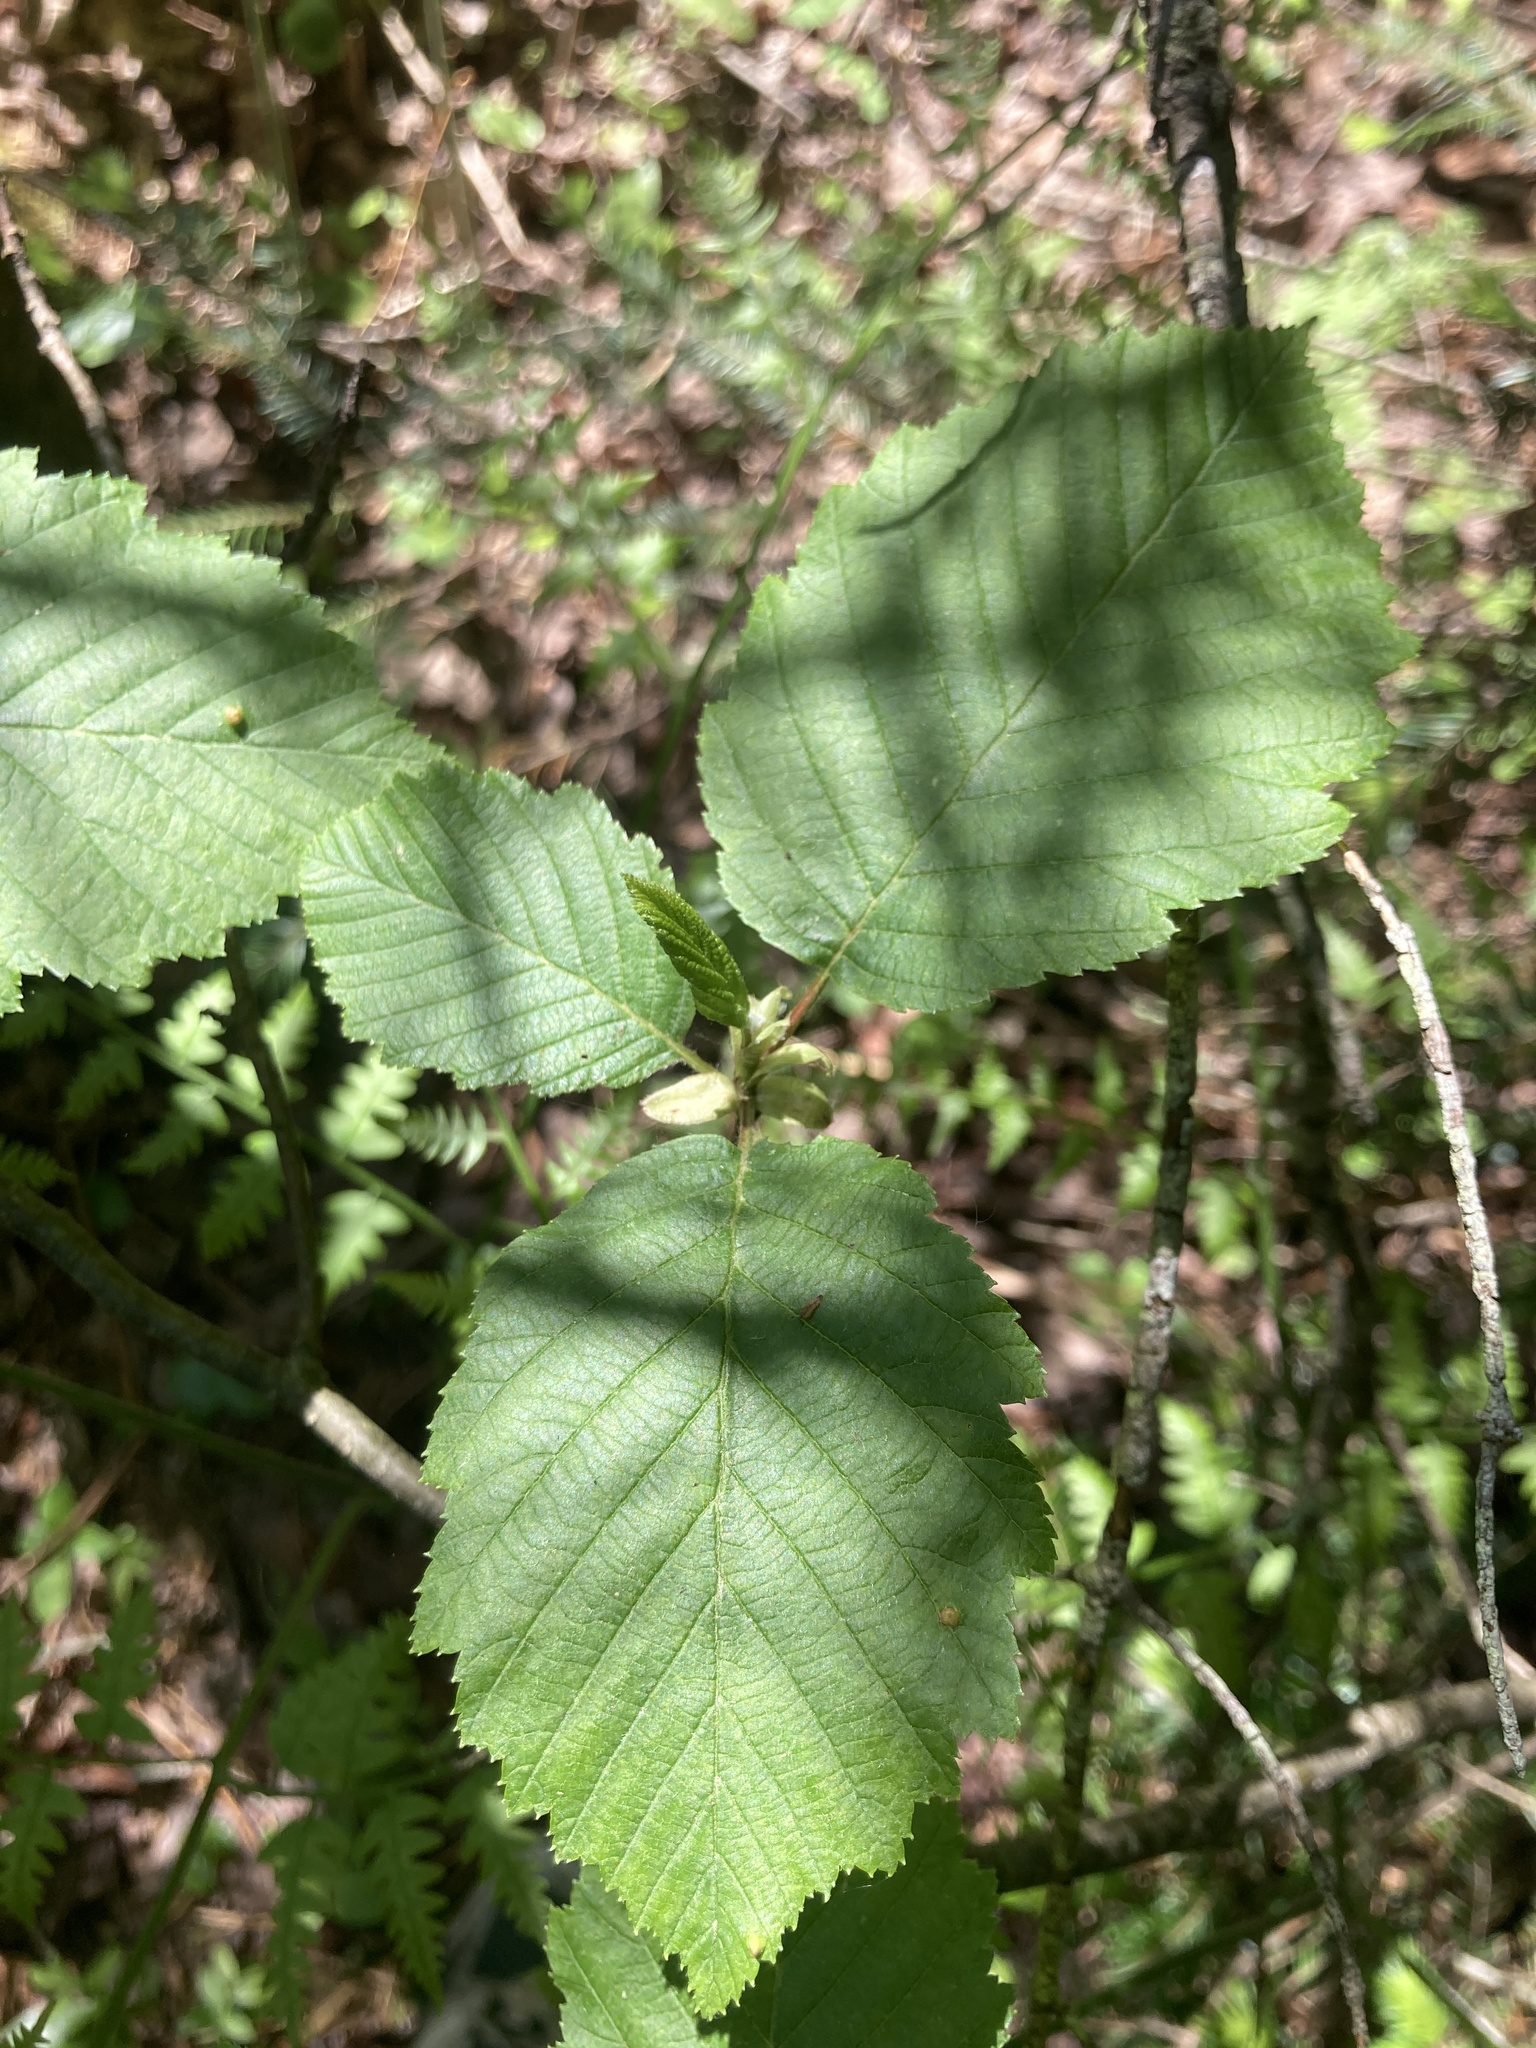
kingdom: Plantae
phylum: Tracheophyta
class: Magnoliopsida
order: Fagales
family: Betulaceae
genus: Alnus
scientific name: Alnus incana
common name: Grey alder
